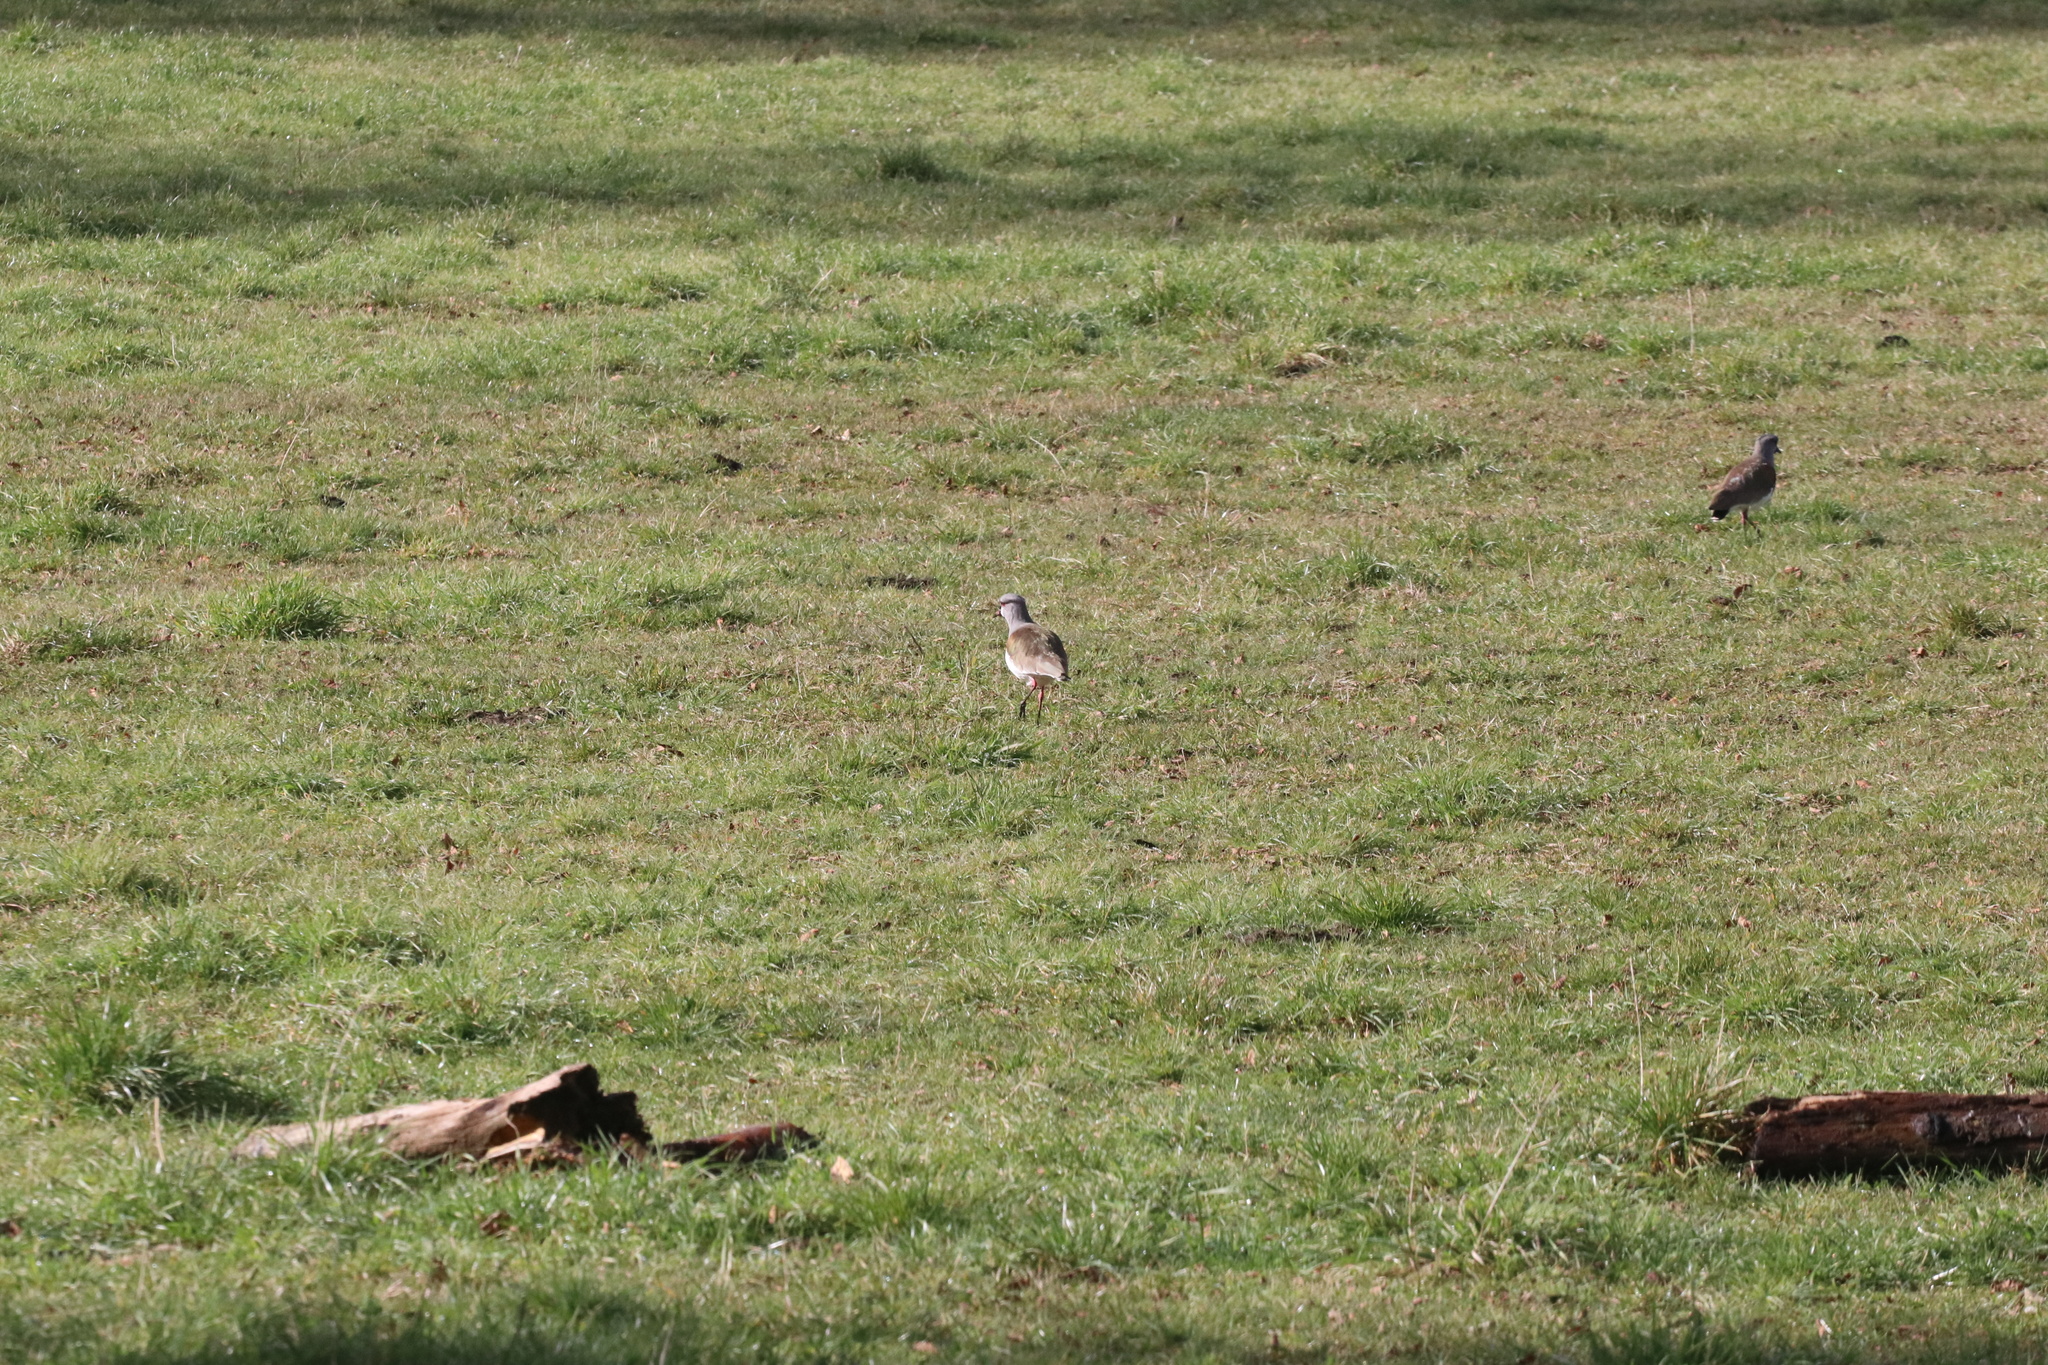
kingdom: Animalia
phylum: Chordata
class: Aves
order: Charadriiformes
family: Charadriidae
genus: Vanellus
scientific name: Vanellus chilensis
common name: Southern lapwing
